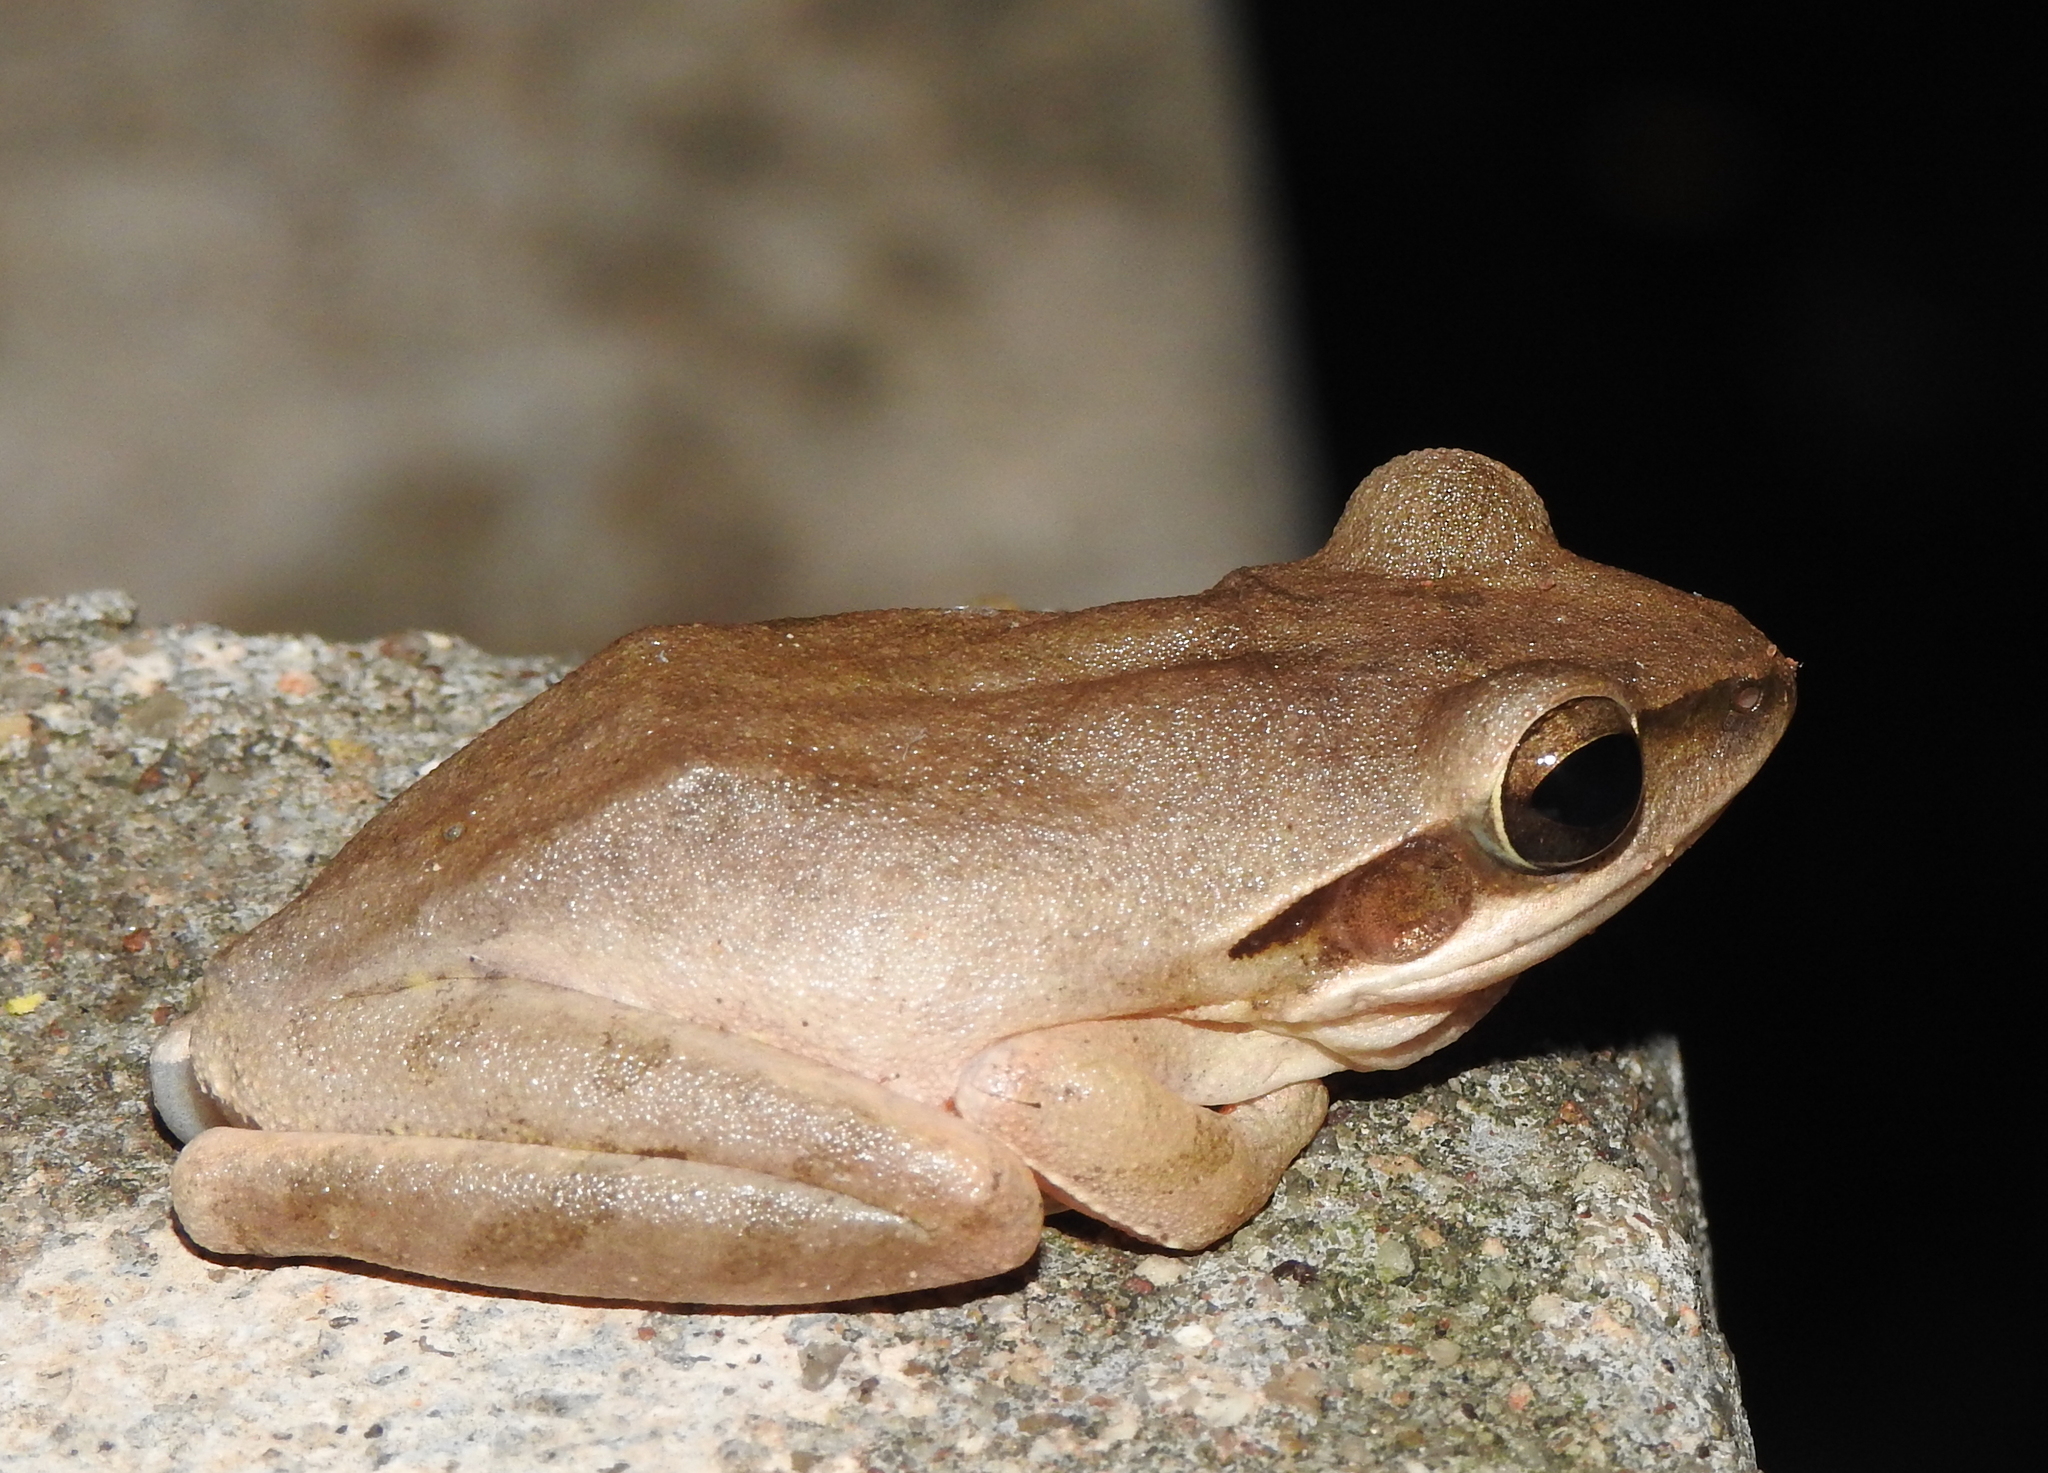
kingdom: Animalia
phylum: Chordata
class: Amphibia
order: Anura
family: Rhacophoridae
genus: Polypedates
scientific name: Polypedates maculatus
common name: Himalayan tree frog
